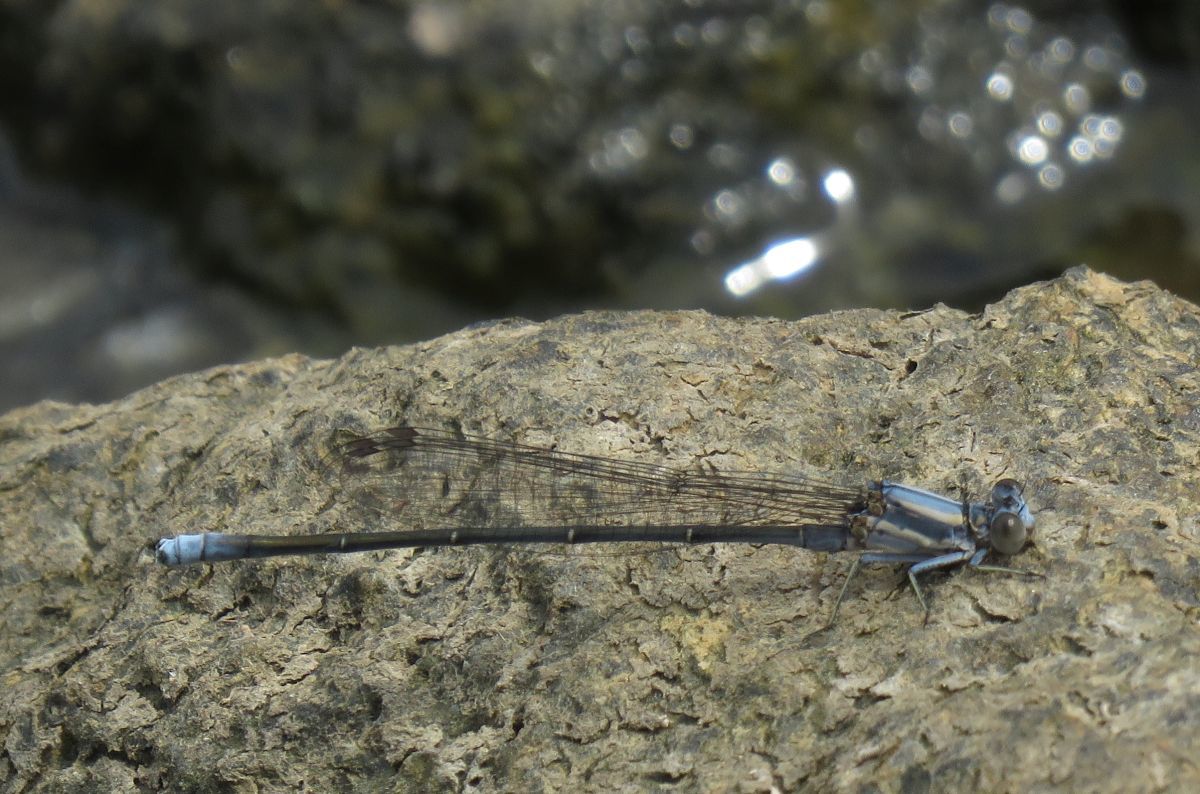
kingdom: Animalia
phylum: Arthropoda
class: Insecta
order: Odonata
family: Coenagrionidae
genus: Argia
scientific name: Argia moesta
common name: Powdered dancer
